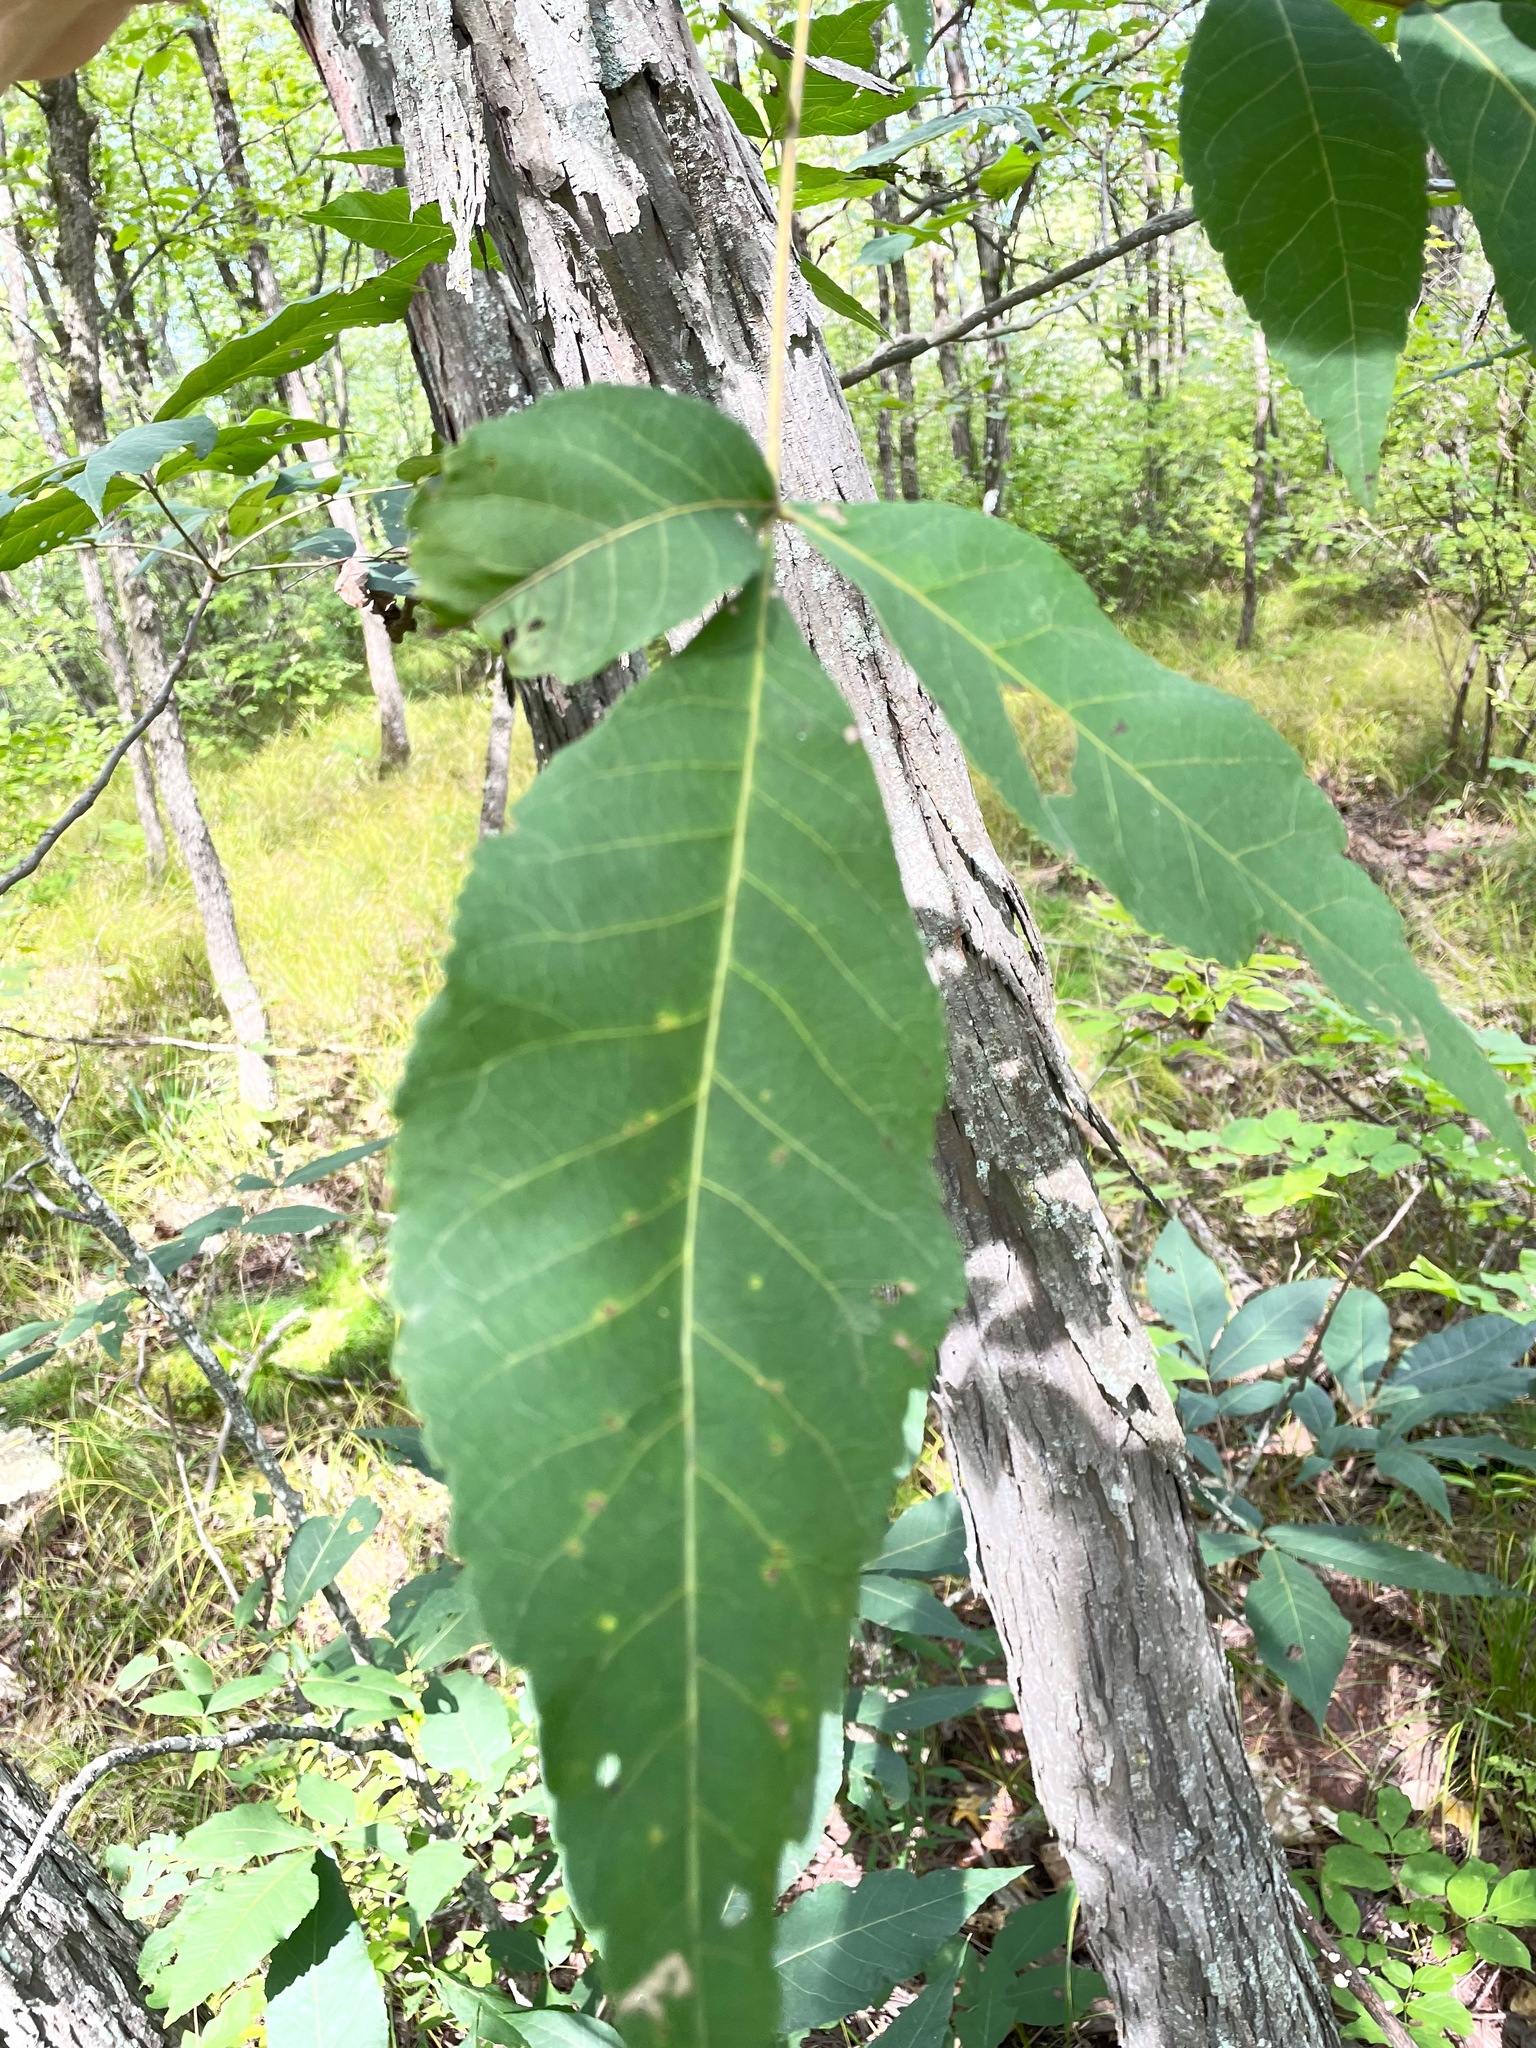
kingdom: Plantae
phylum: Tracheophyta
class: Magnoliopsida
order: Fagales
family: Juglandaceae
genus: Carya
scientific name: Carya ovata
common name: Shagbark hickory
